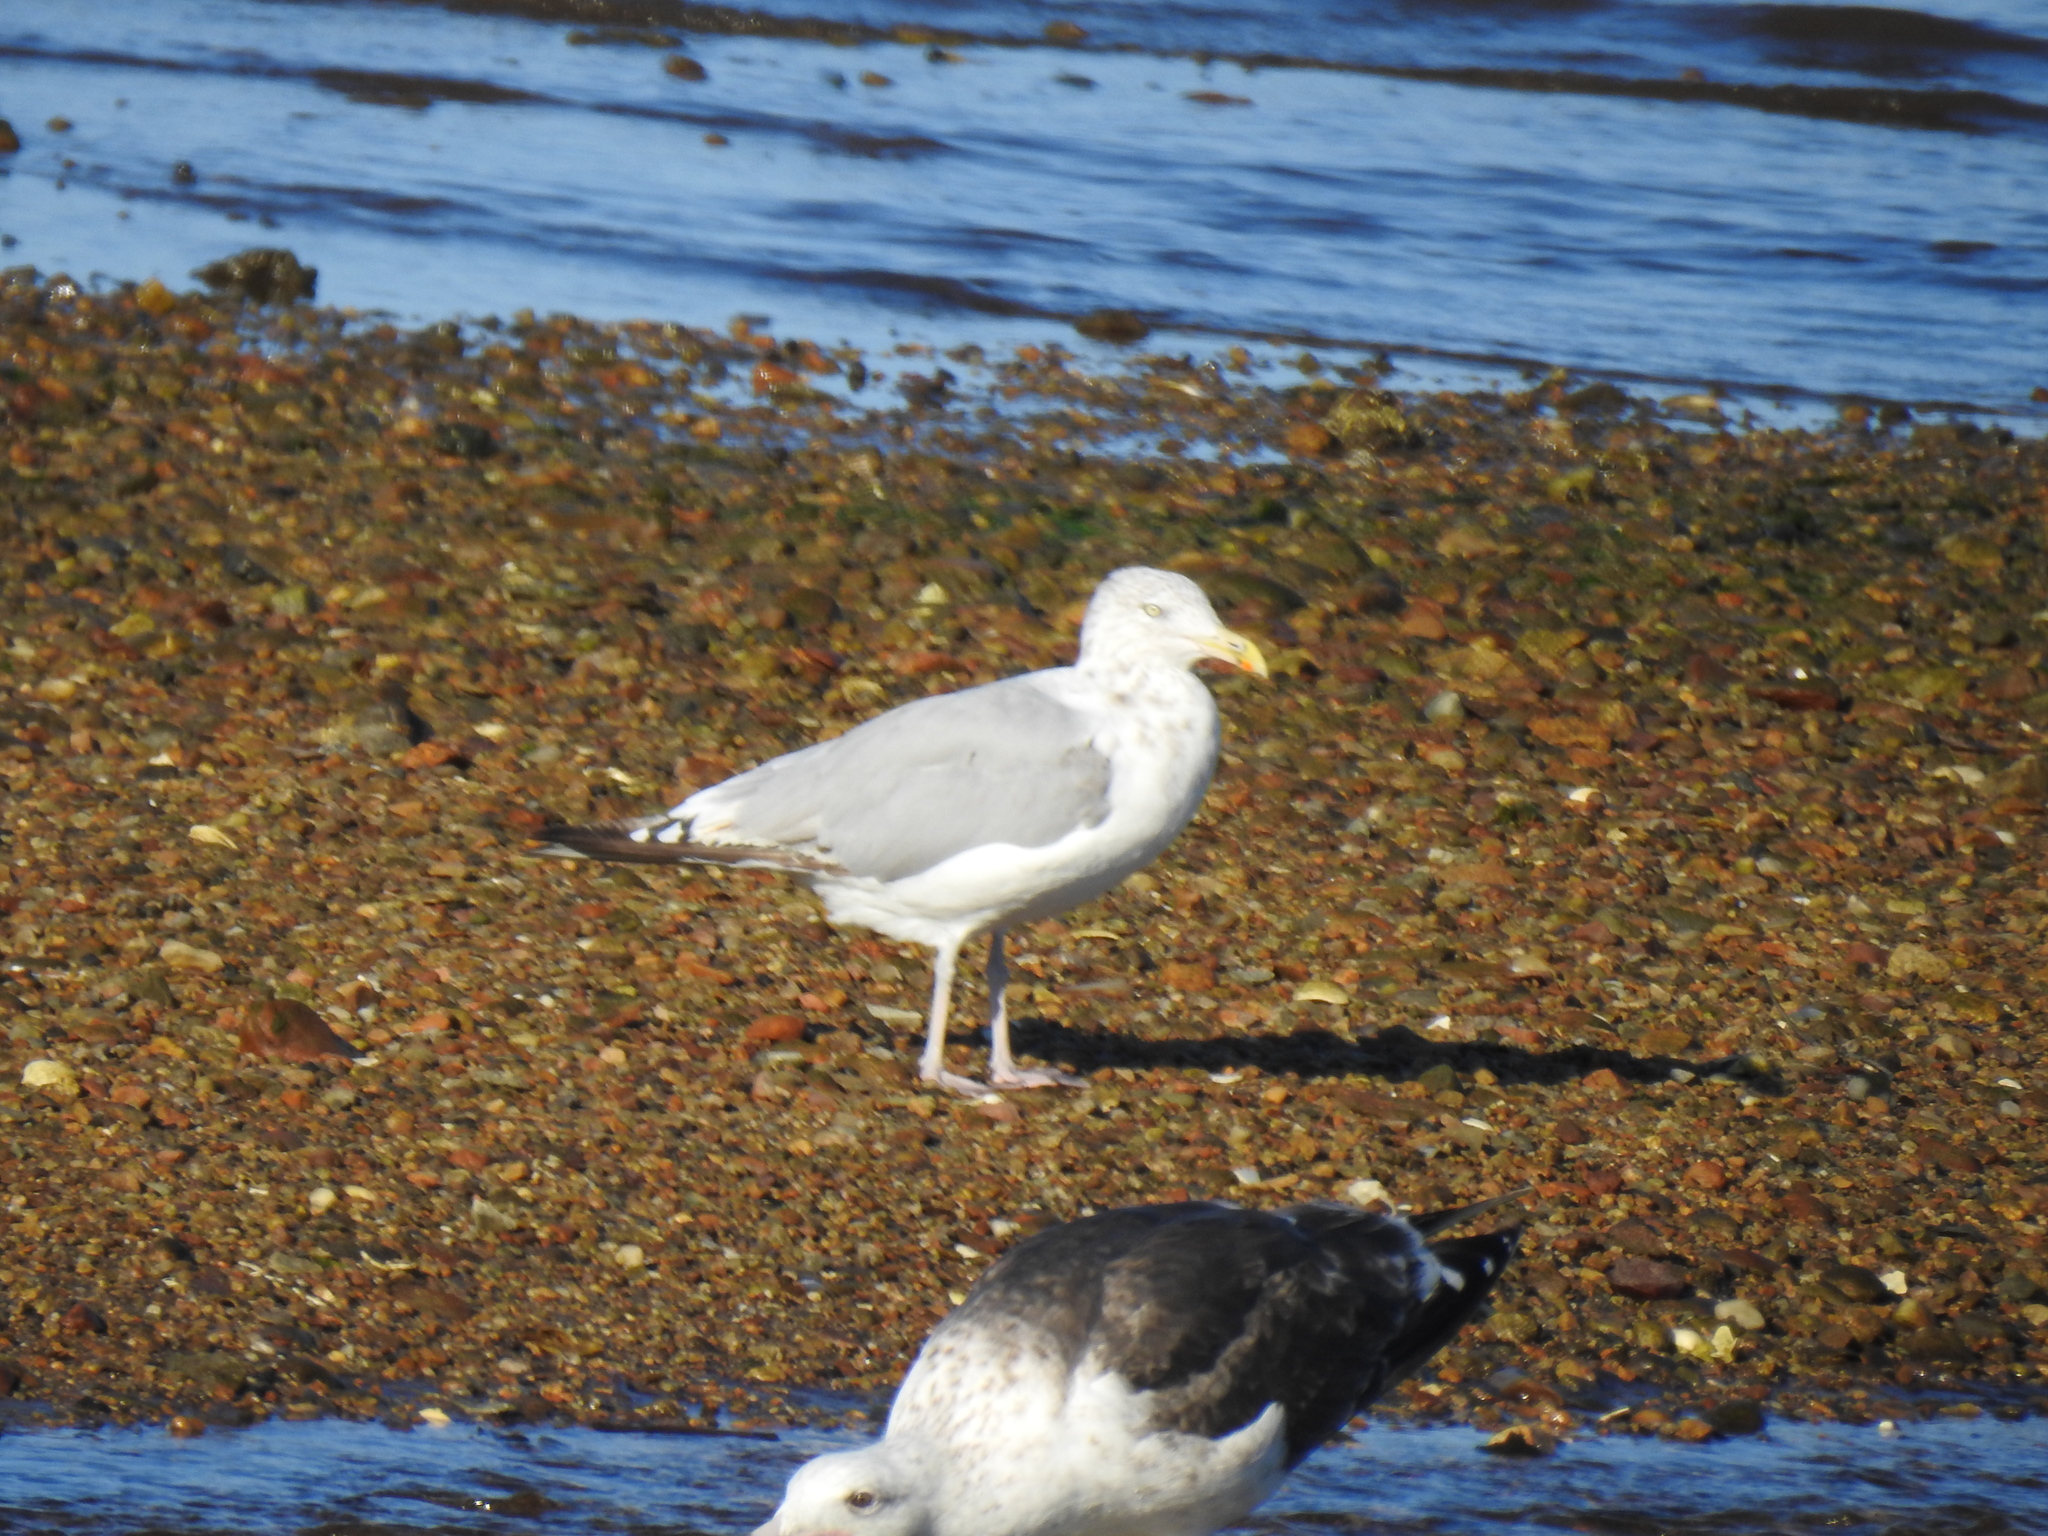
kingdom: Animalia
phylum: Chordata
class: Aves
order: Charadriiformes
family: Laridae
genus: Larus
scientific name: Larus argentatus
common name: Herring gull
